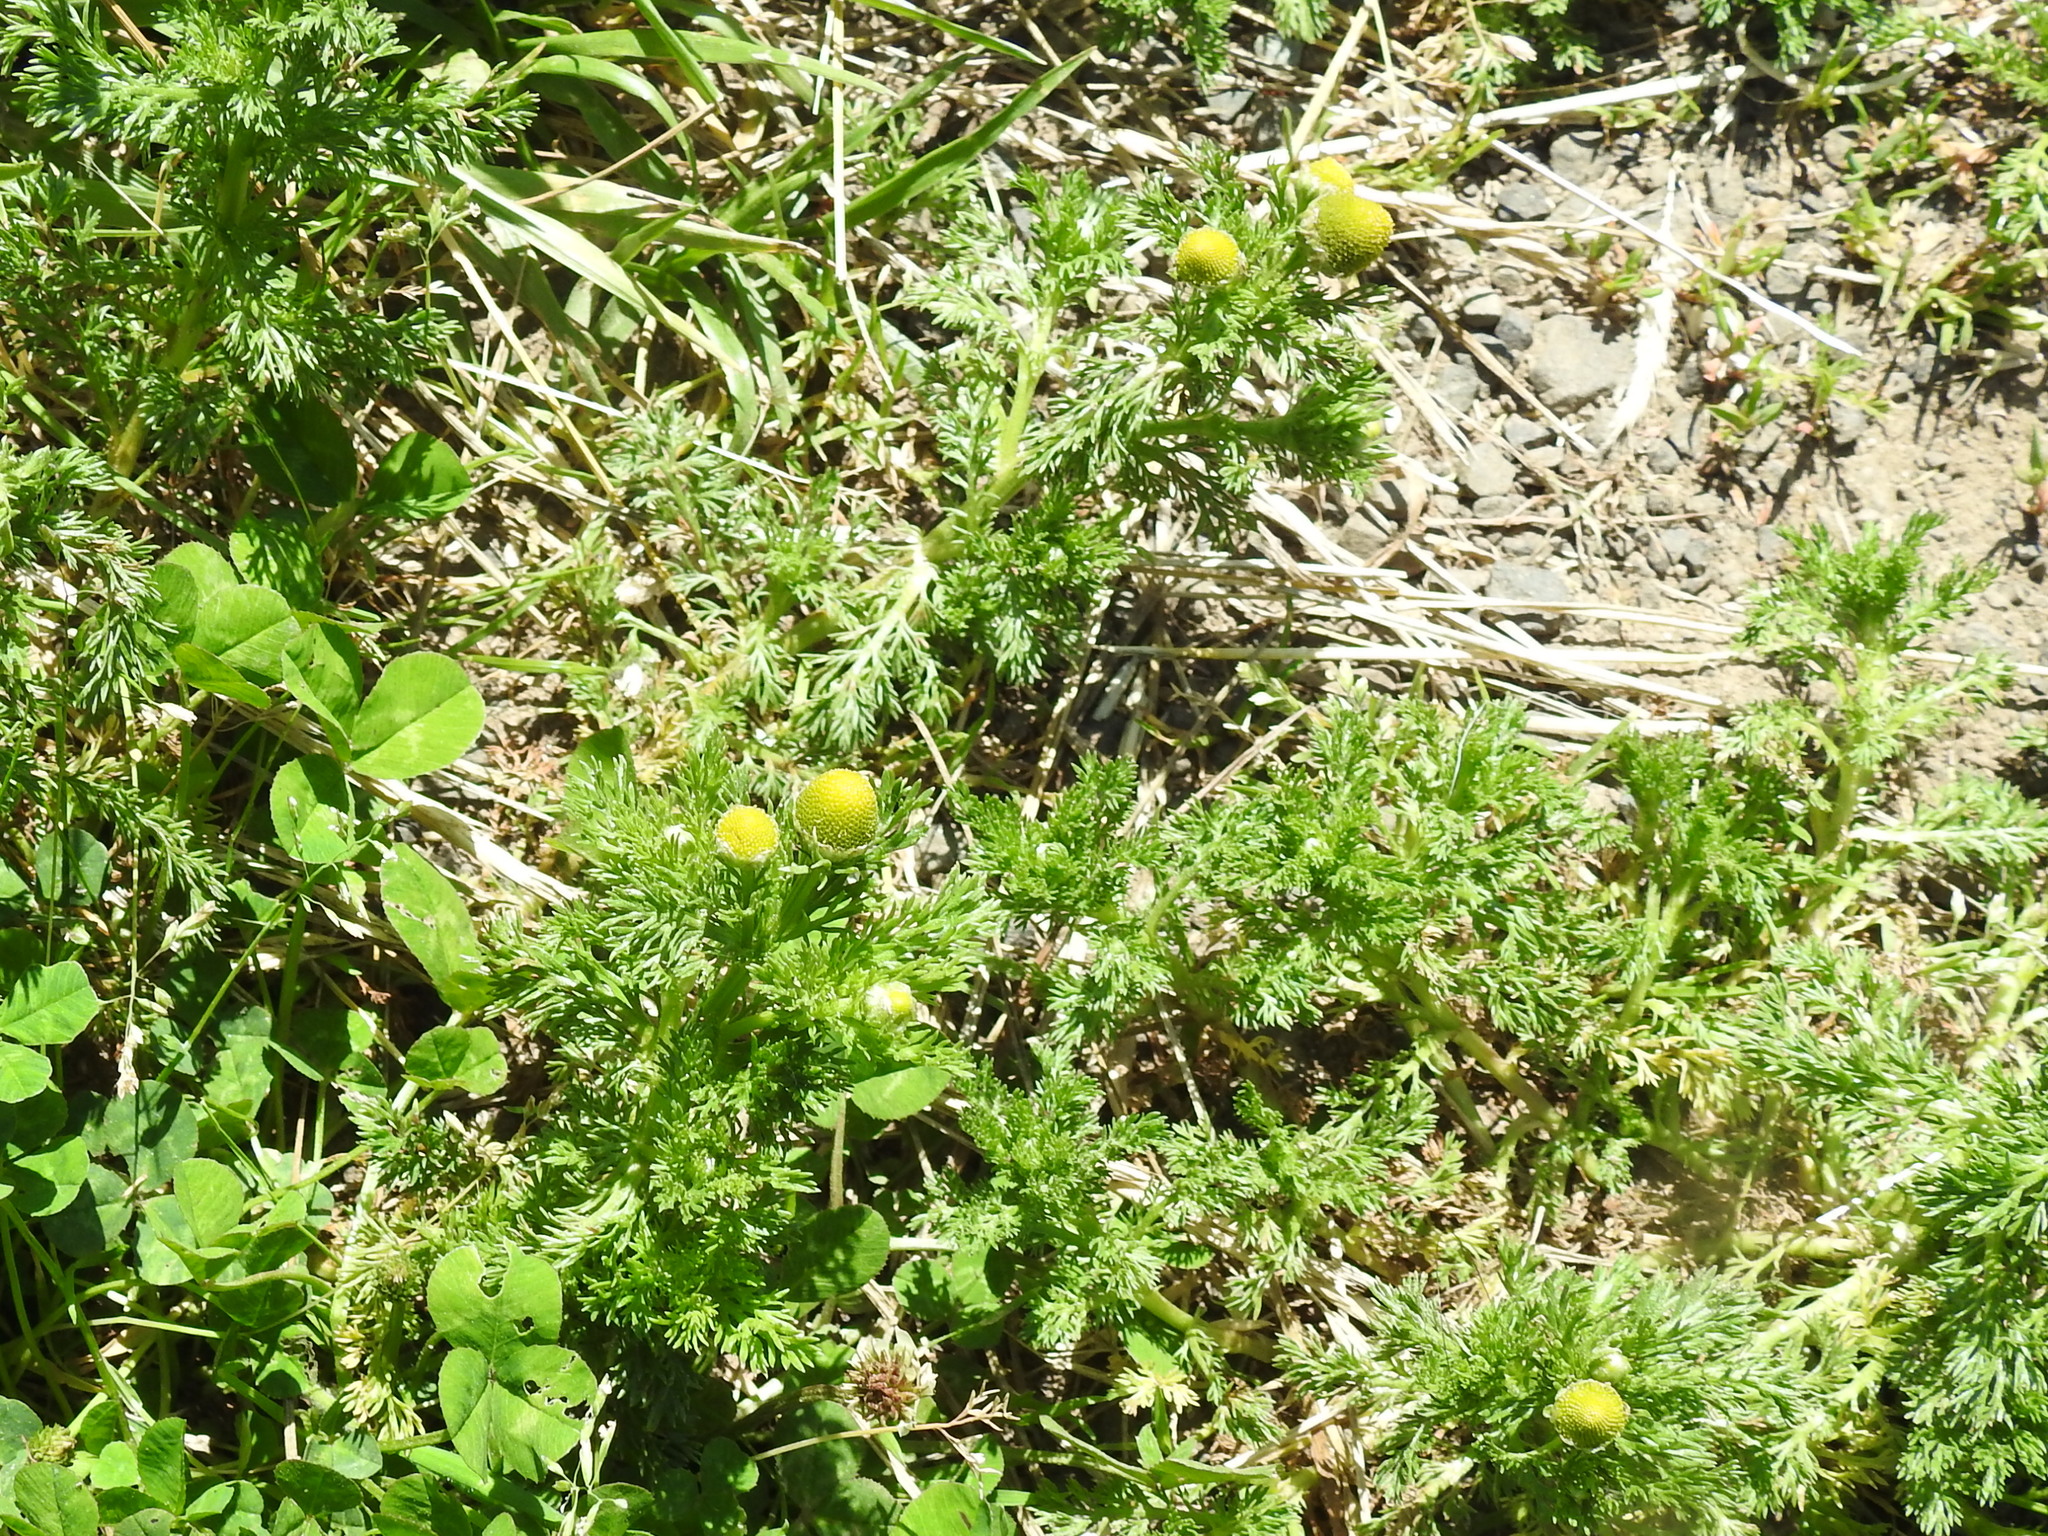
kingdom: Plantae
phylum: Tracheophyta
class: Magnoliopsida
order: Asterales
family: Asteraceae
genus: Matricaria
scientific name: Matricaria discoidea
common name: Disc mayweed
